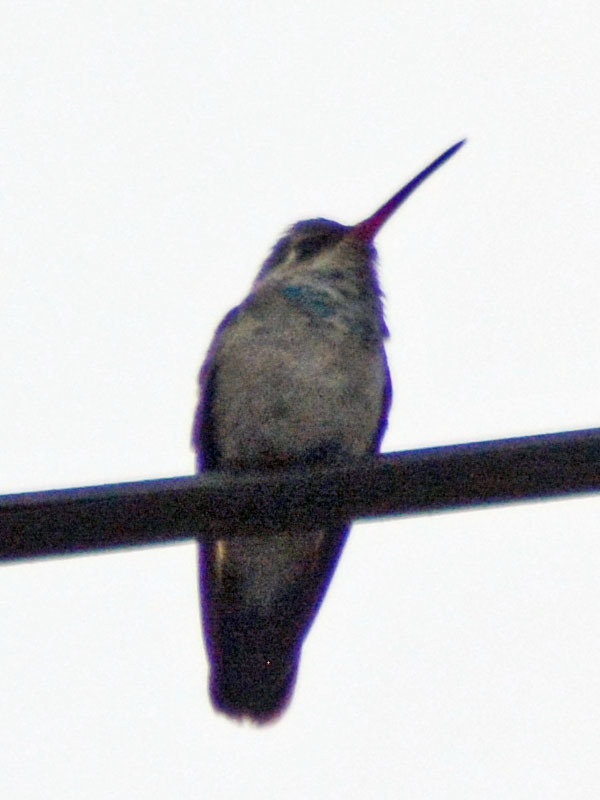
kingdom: Animalia
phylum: Chordata
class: Aves
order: Apodiformes
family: Trochilidae
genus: Cynanthus
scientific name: Cynanthus latirostris
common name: Broad-billed hummingbird
